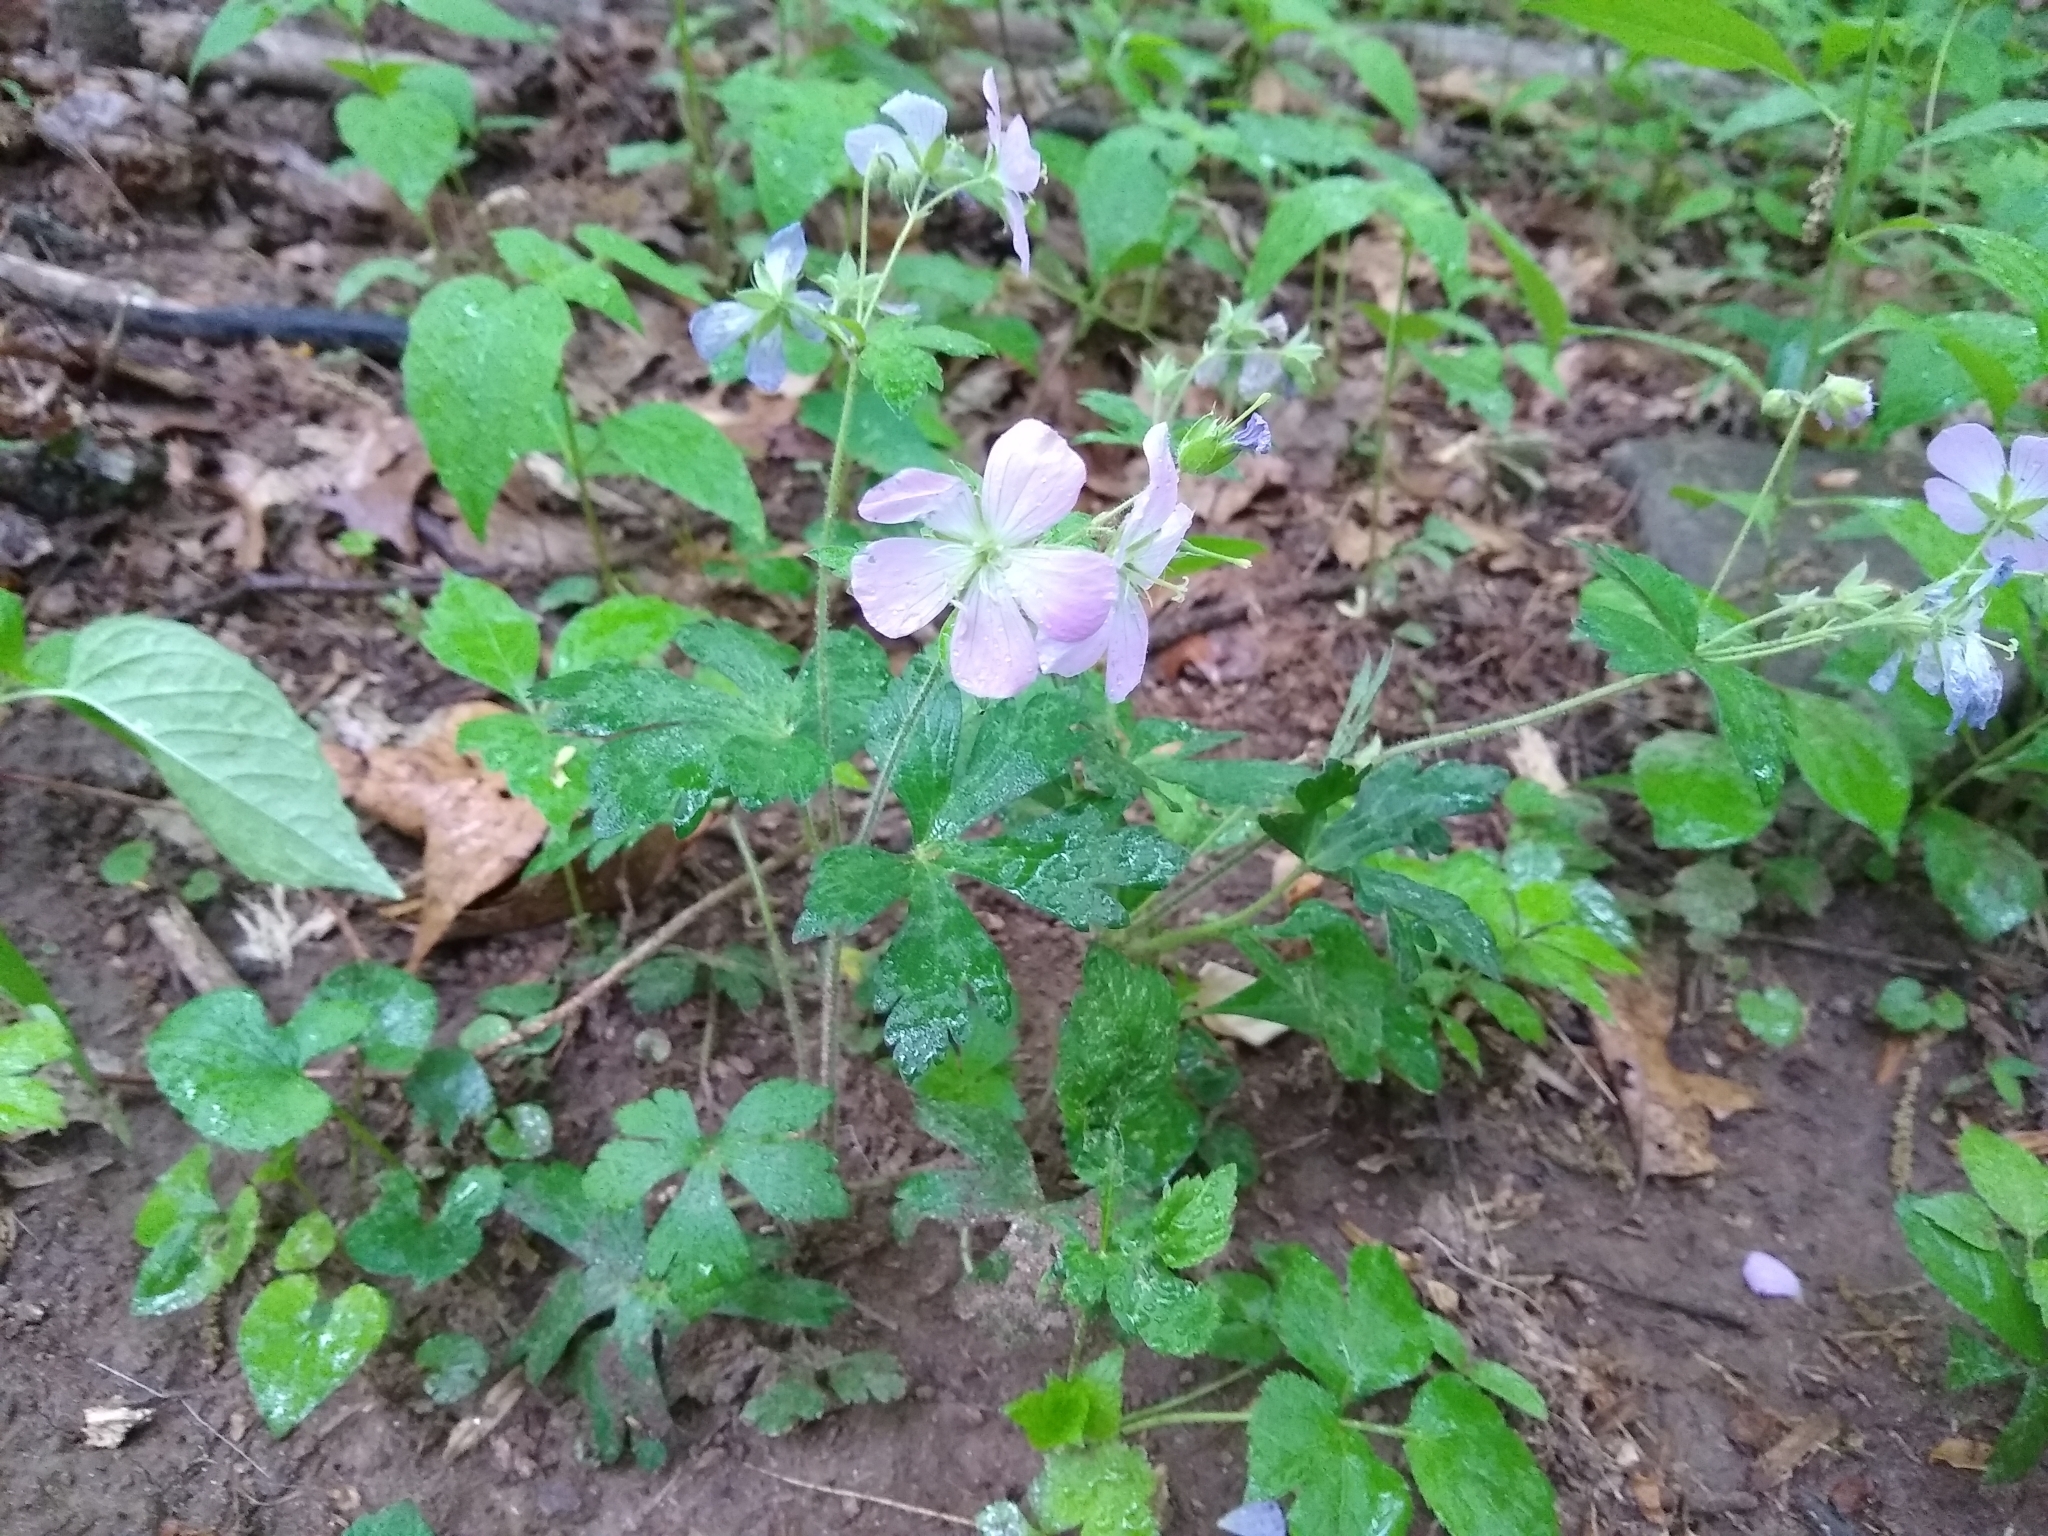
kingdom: Plantae
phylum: Tracheophyta
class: Magnoliopsida
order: Geraniales
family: Geraniaceae
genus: Geranium
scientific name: Geranium maculatum
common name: Spotted geranium
